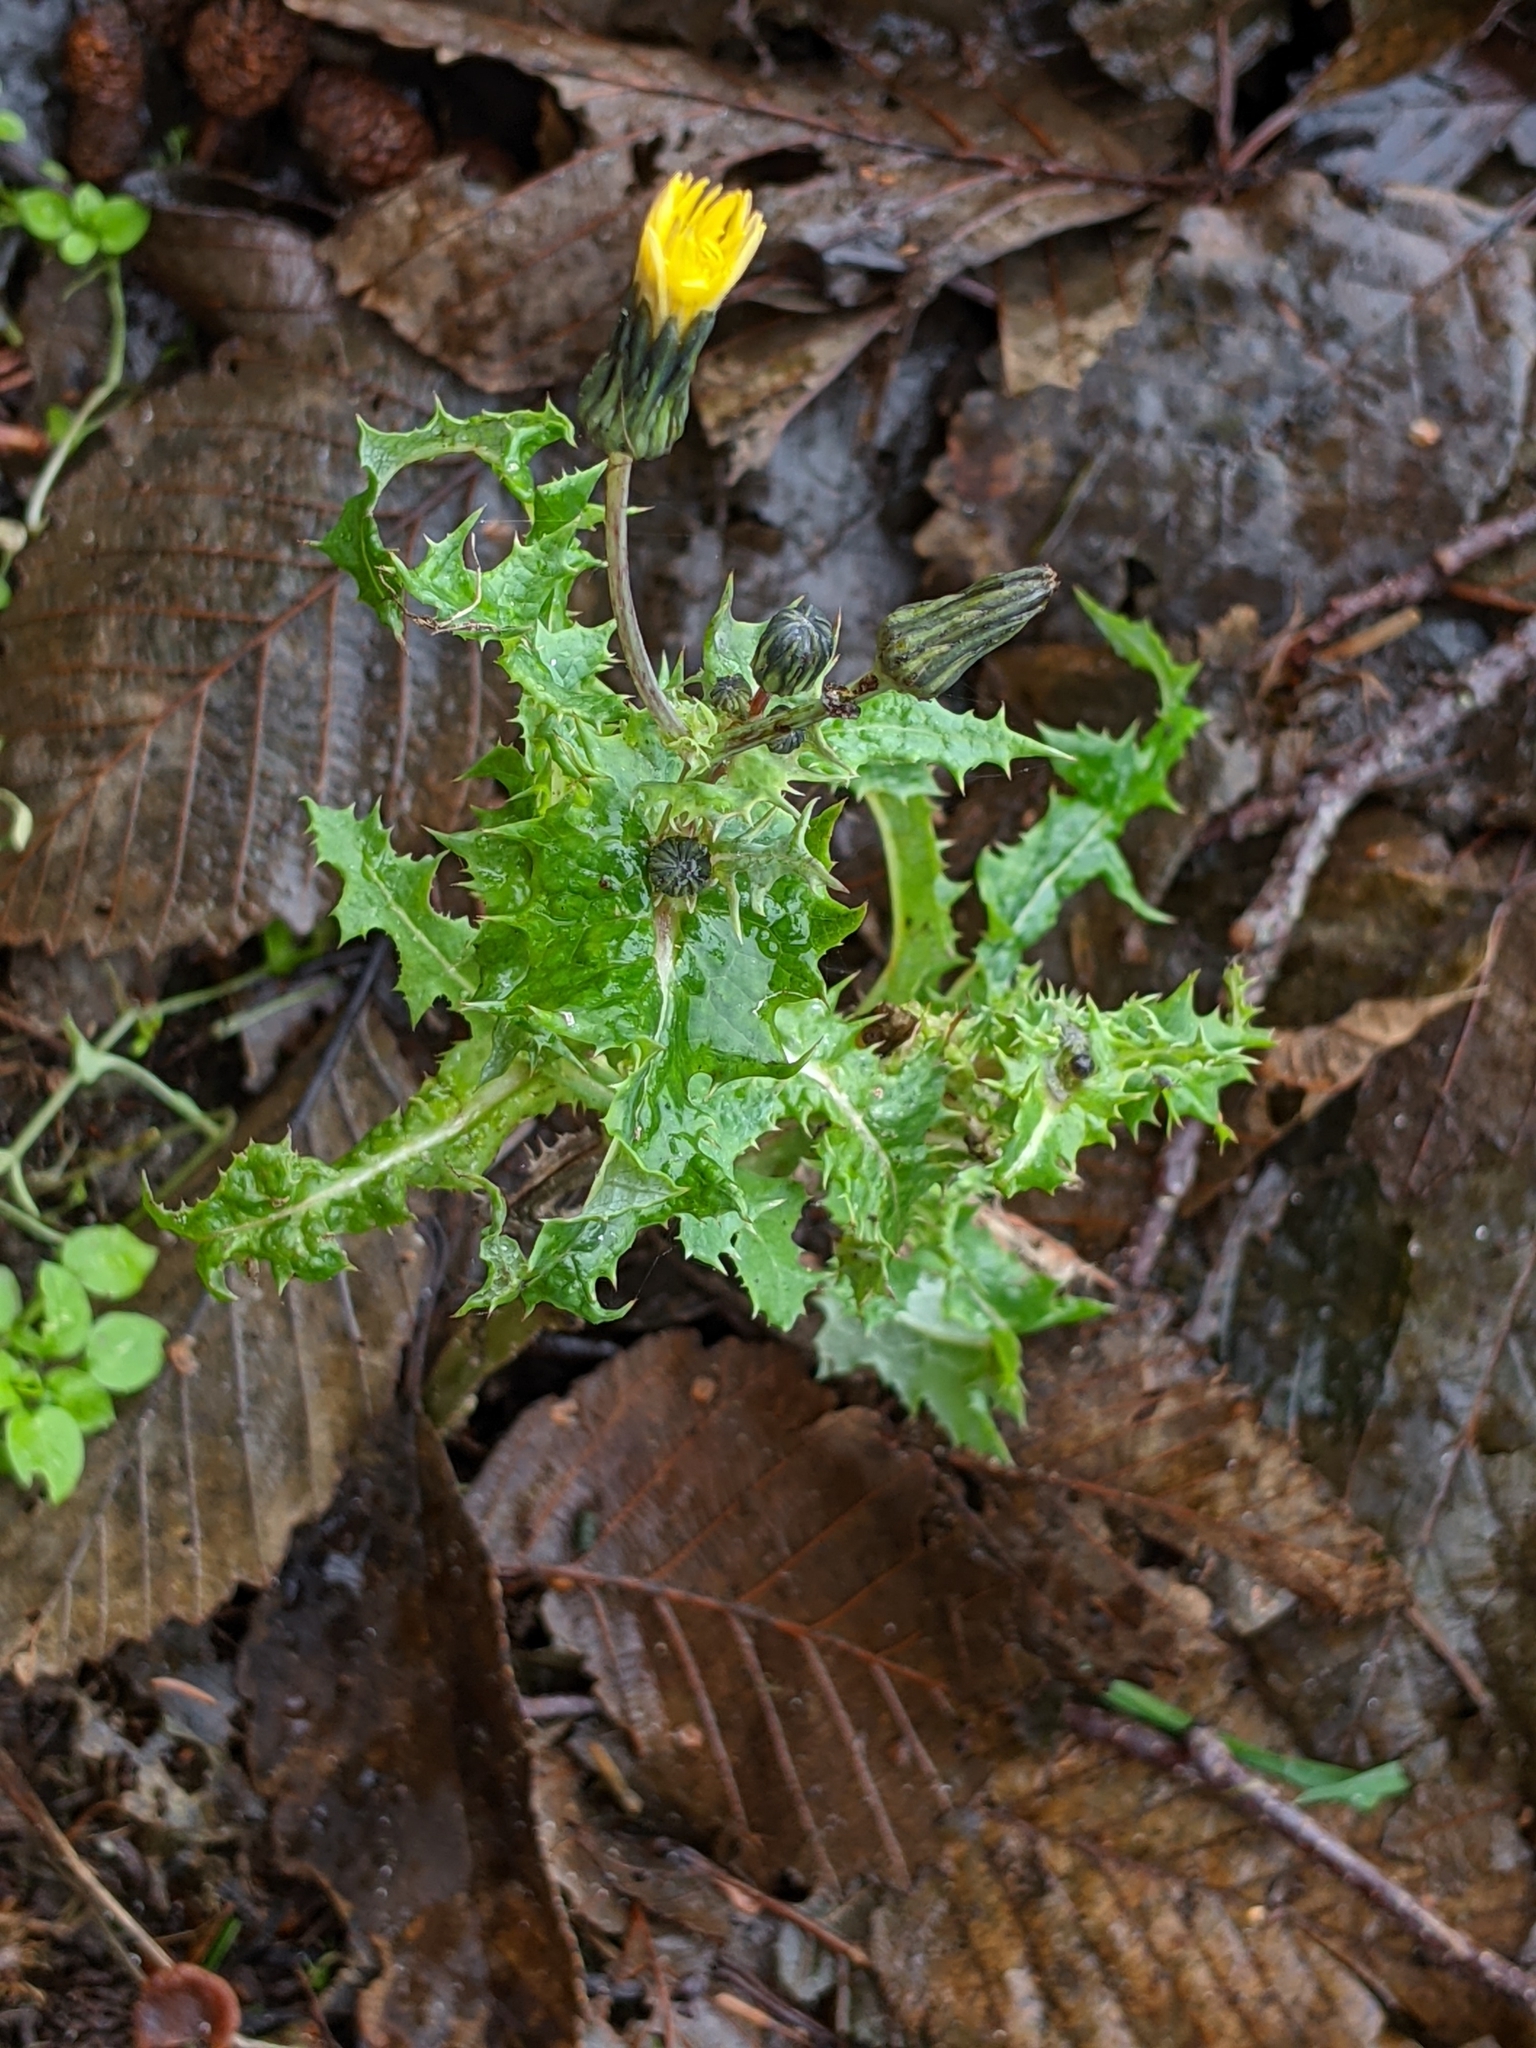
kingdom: Plantae
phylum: Tracheophyta
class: Magnoliopsida
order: Asterales
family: Asteraceae
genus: Sonchus
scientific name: Sonchus asper
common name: Prickly sow-thistle
